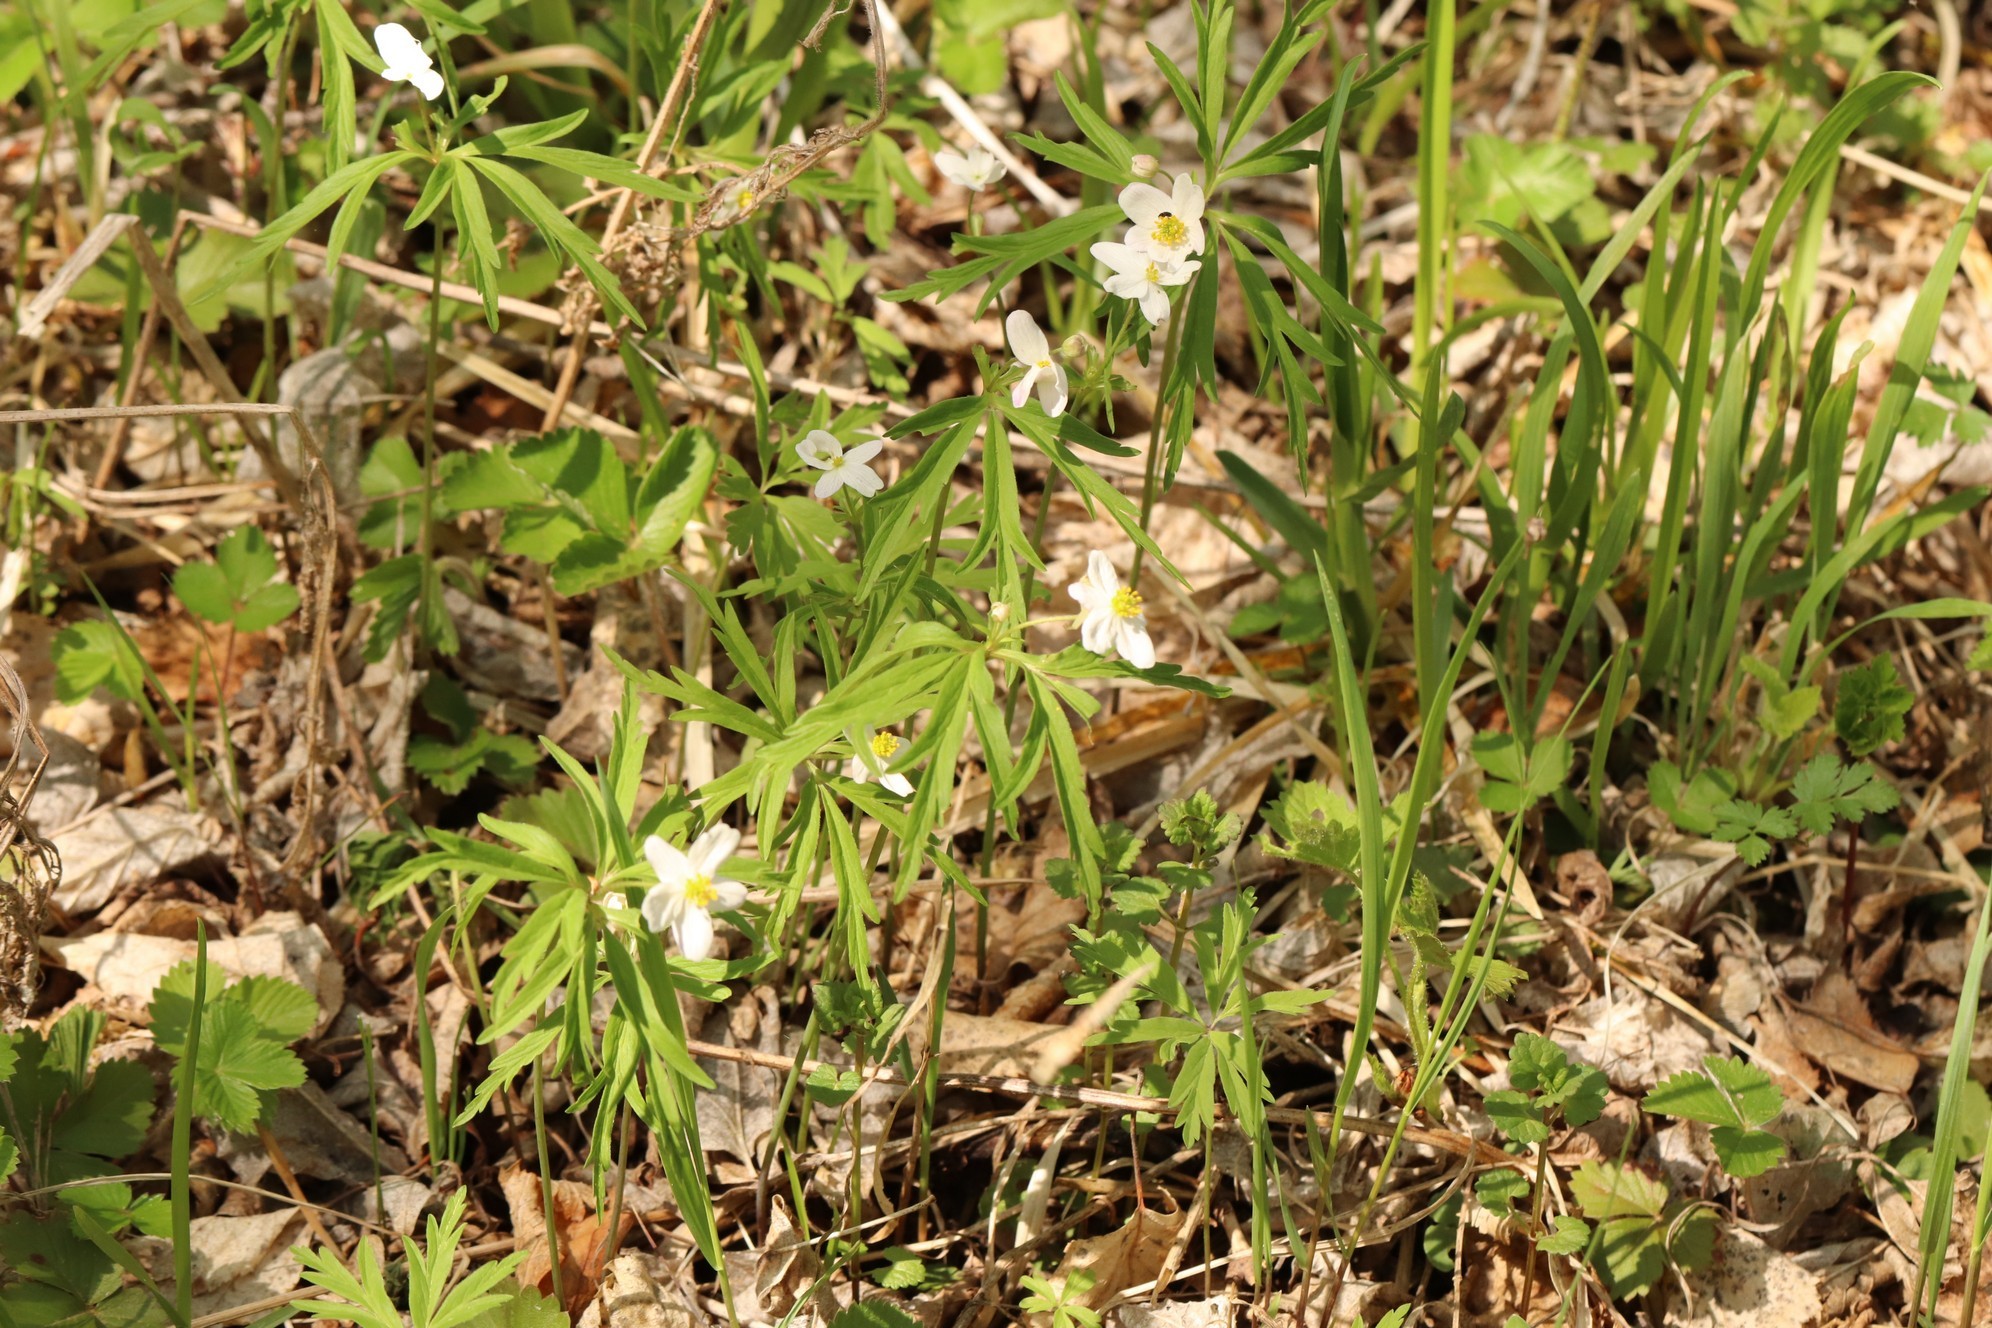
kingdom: Plantae
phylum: Tracheophyta
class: Magnoliopsida
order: Ranunculales
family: Ranunculaceae
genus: Anemone
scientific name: Anemone caerulea
